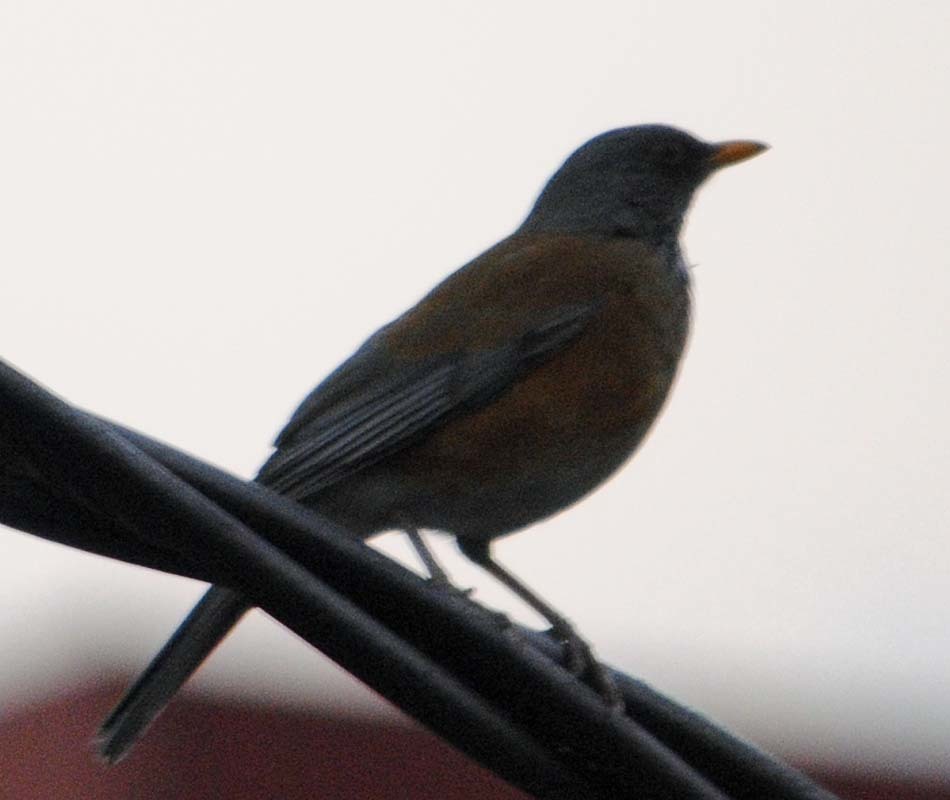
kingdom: Animalia
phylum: Chordata
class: Aves
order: Passeriformes
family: Turdidae
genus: Turdus
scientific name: Turdus rufopalliatus
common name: Rufous-backed robin
